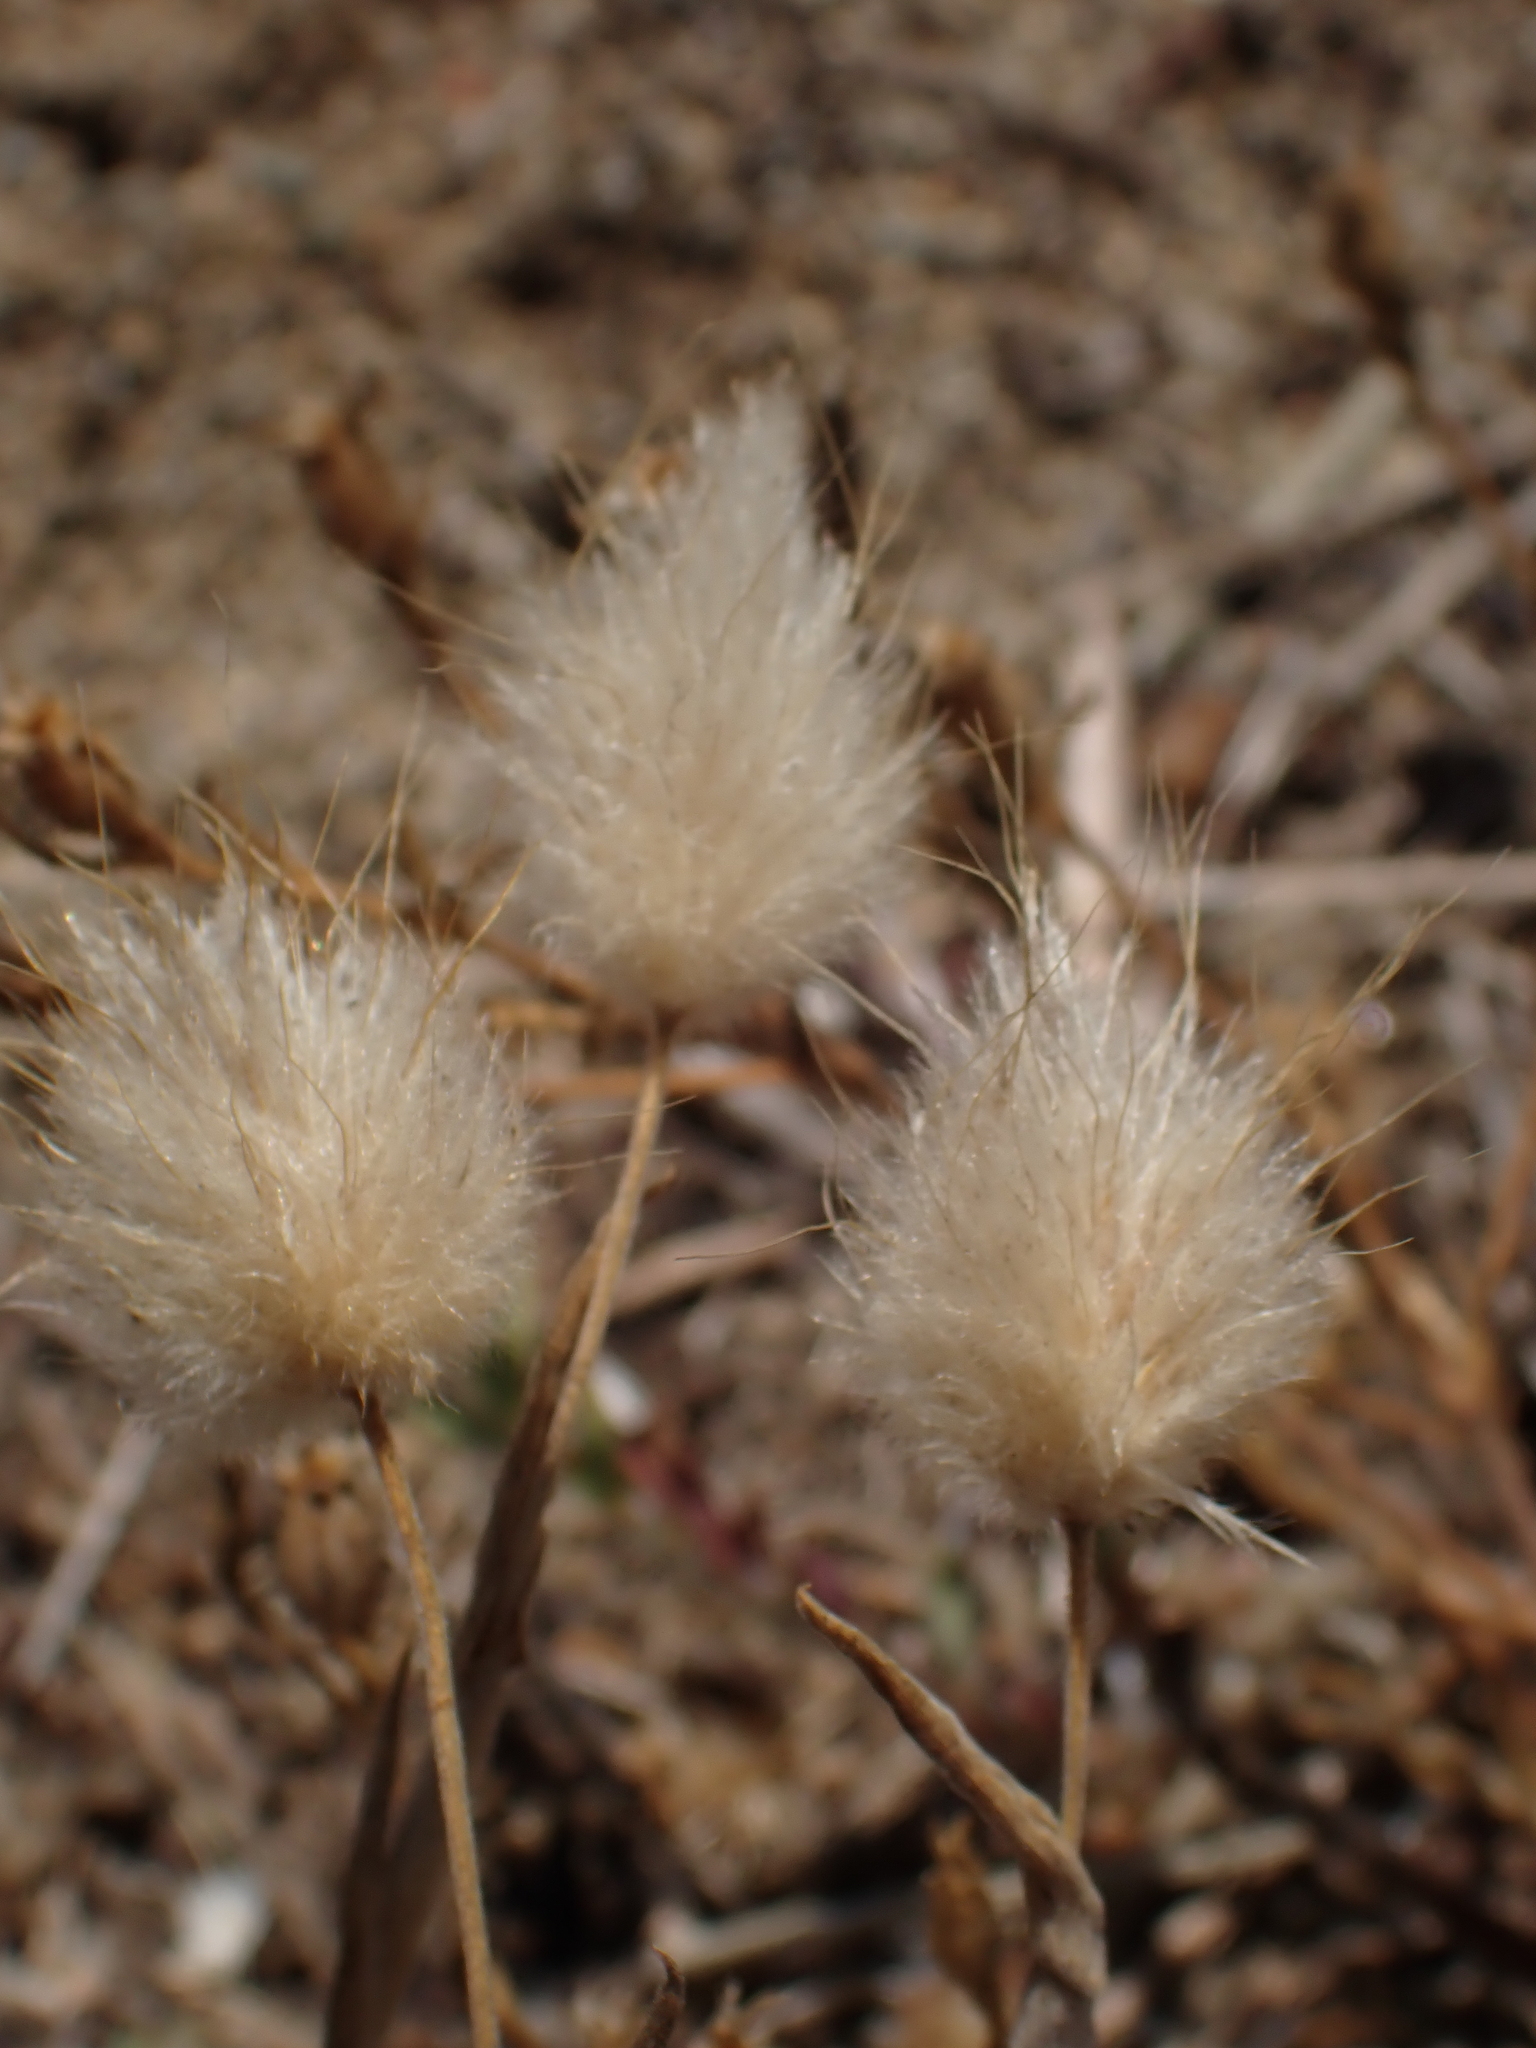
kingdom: Plantae
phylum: Tracheophyta
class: Liliopsida
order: Poales
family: Poaceae
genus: Lagurus
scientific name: Lagurus ovatus
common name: Hare's-tail
